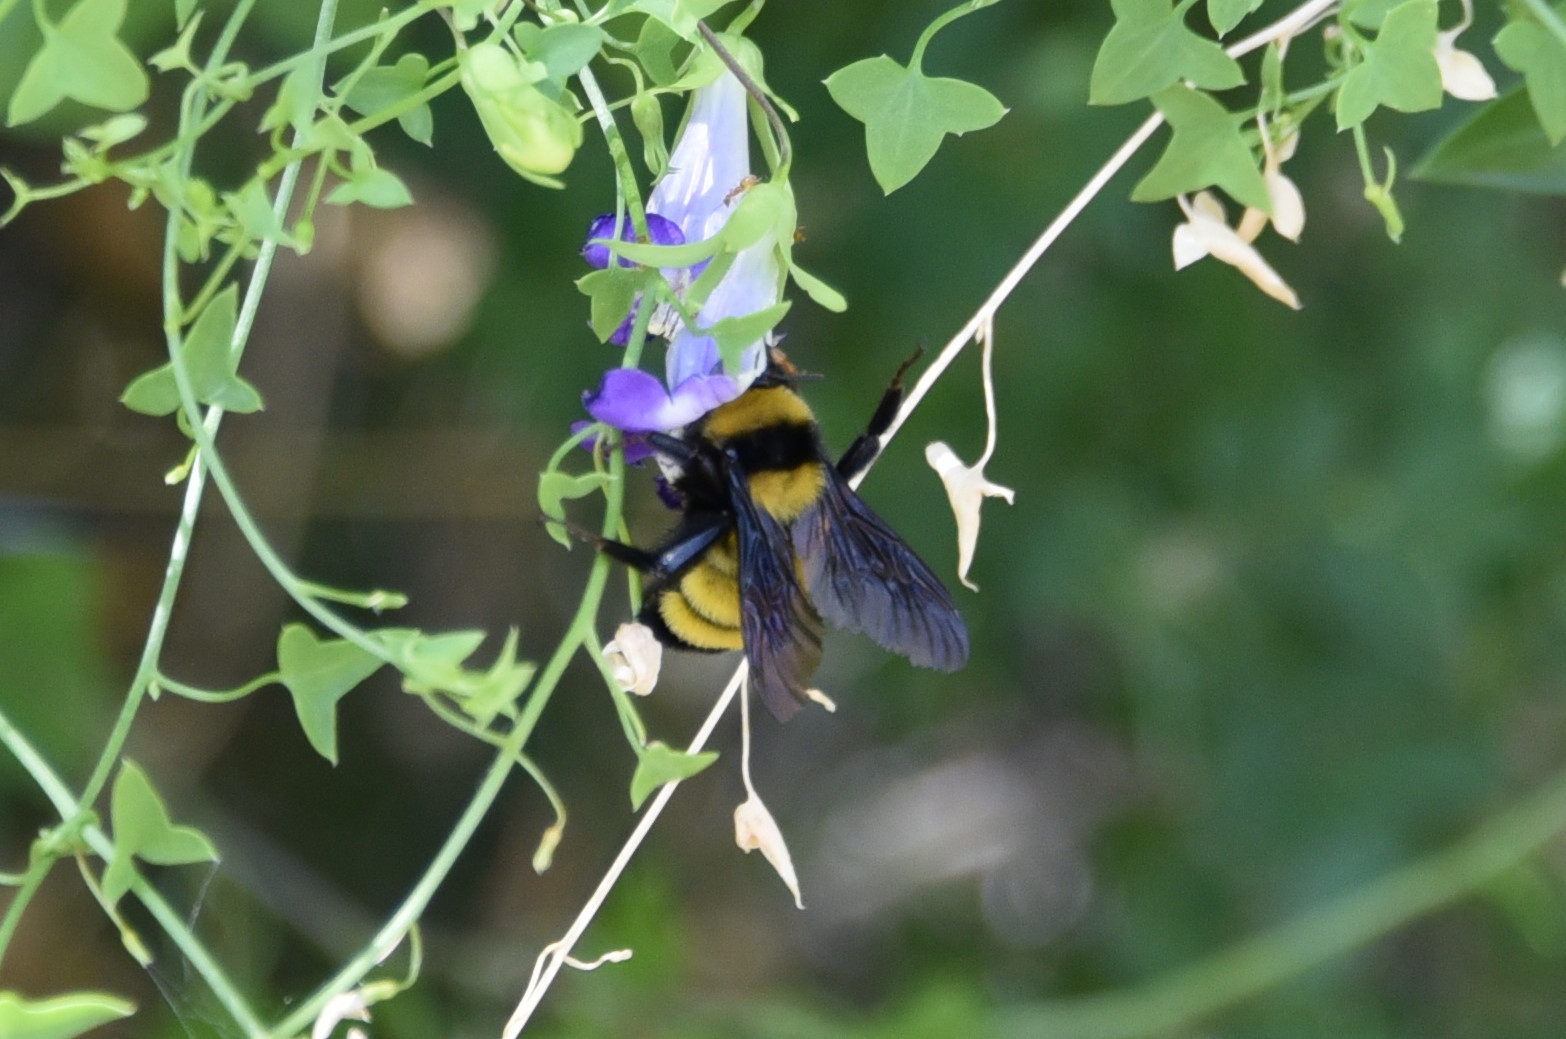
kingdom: Animalia
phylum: Arthropoda
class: Insecta
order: Hymenoptera
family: Apidae
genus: Bombus
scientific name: Bombus sonorus
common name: Sonoran bumble bee
